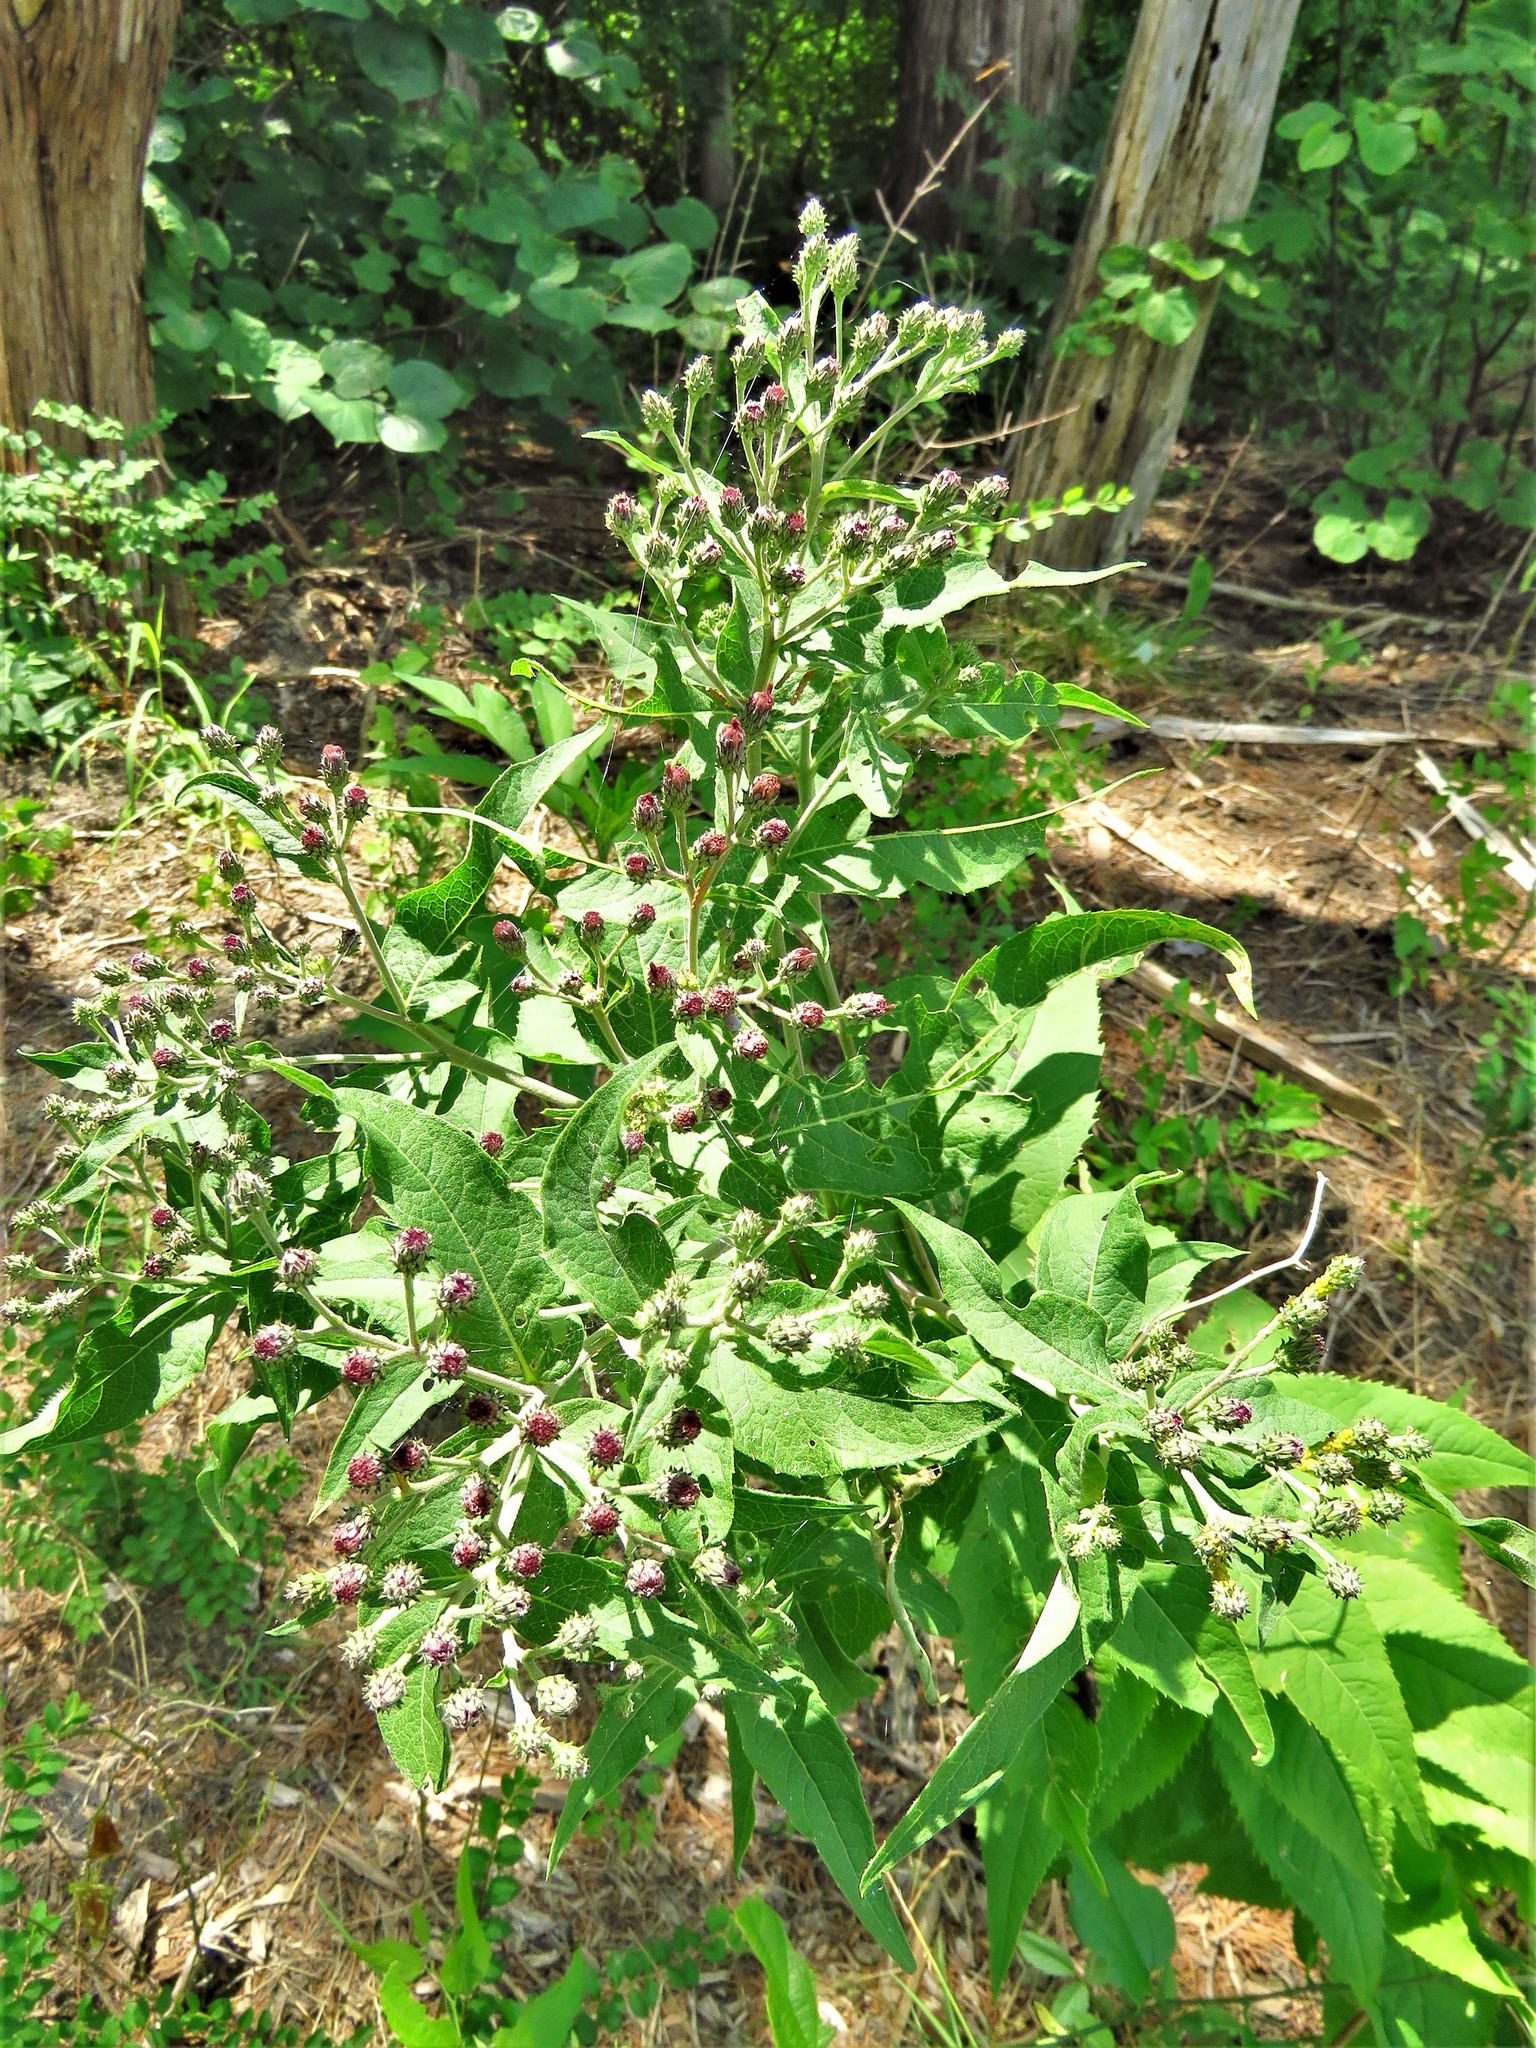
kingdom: Plantae
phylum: Tracheophyta
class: Magnoliopsida
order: Asterales
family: Asteraceae
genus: Vernonia
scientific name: Vernonia baldwinii
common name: Western ironweed
